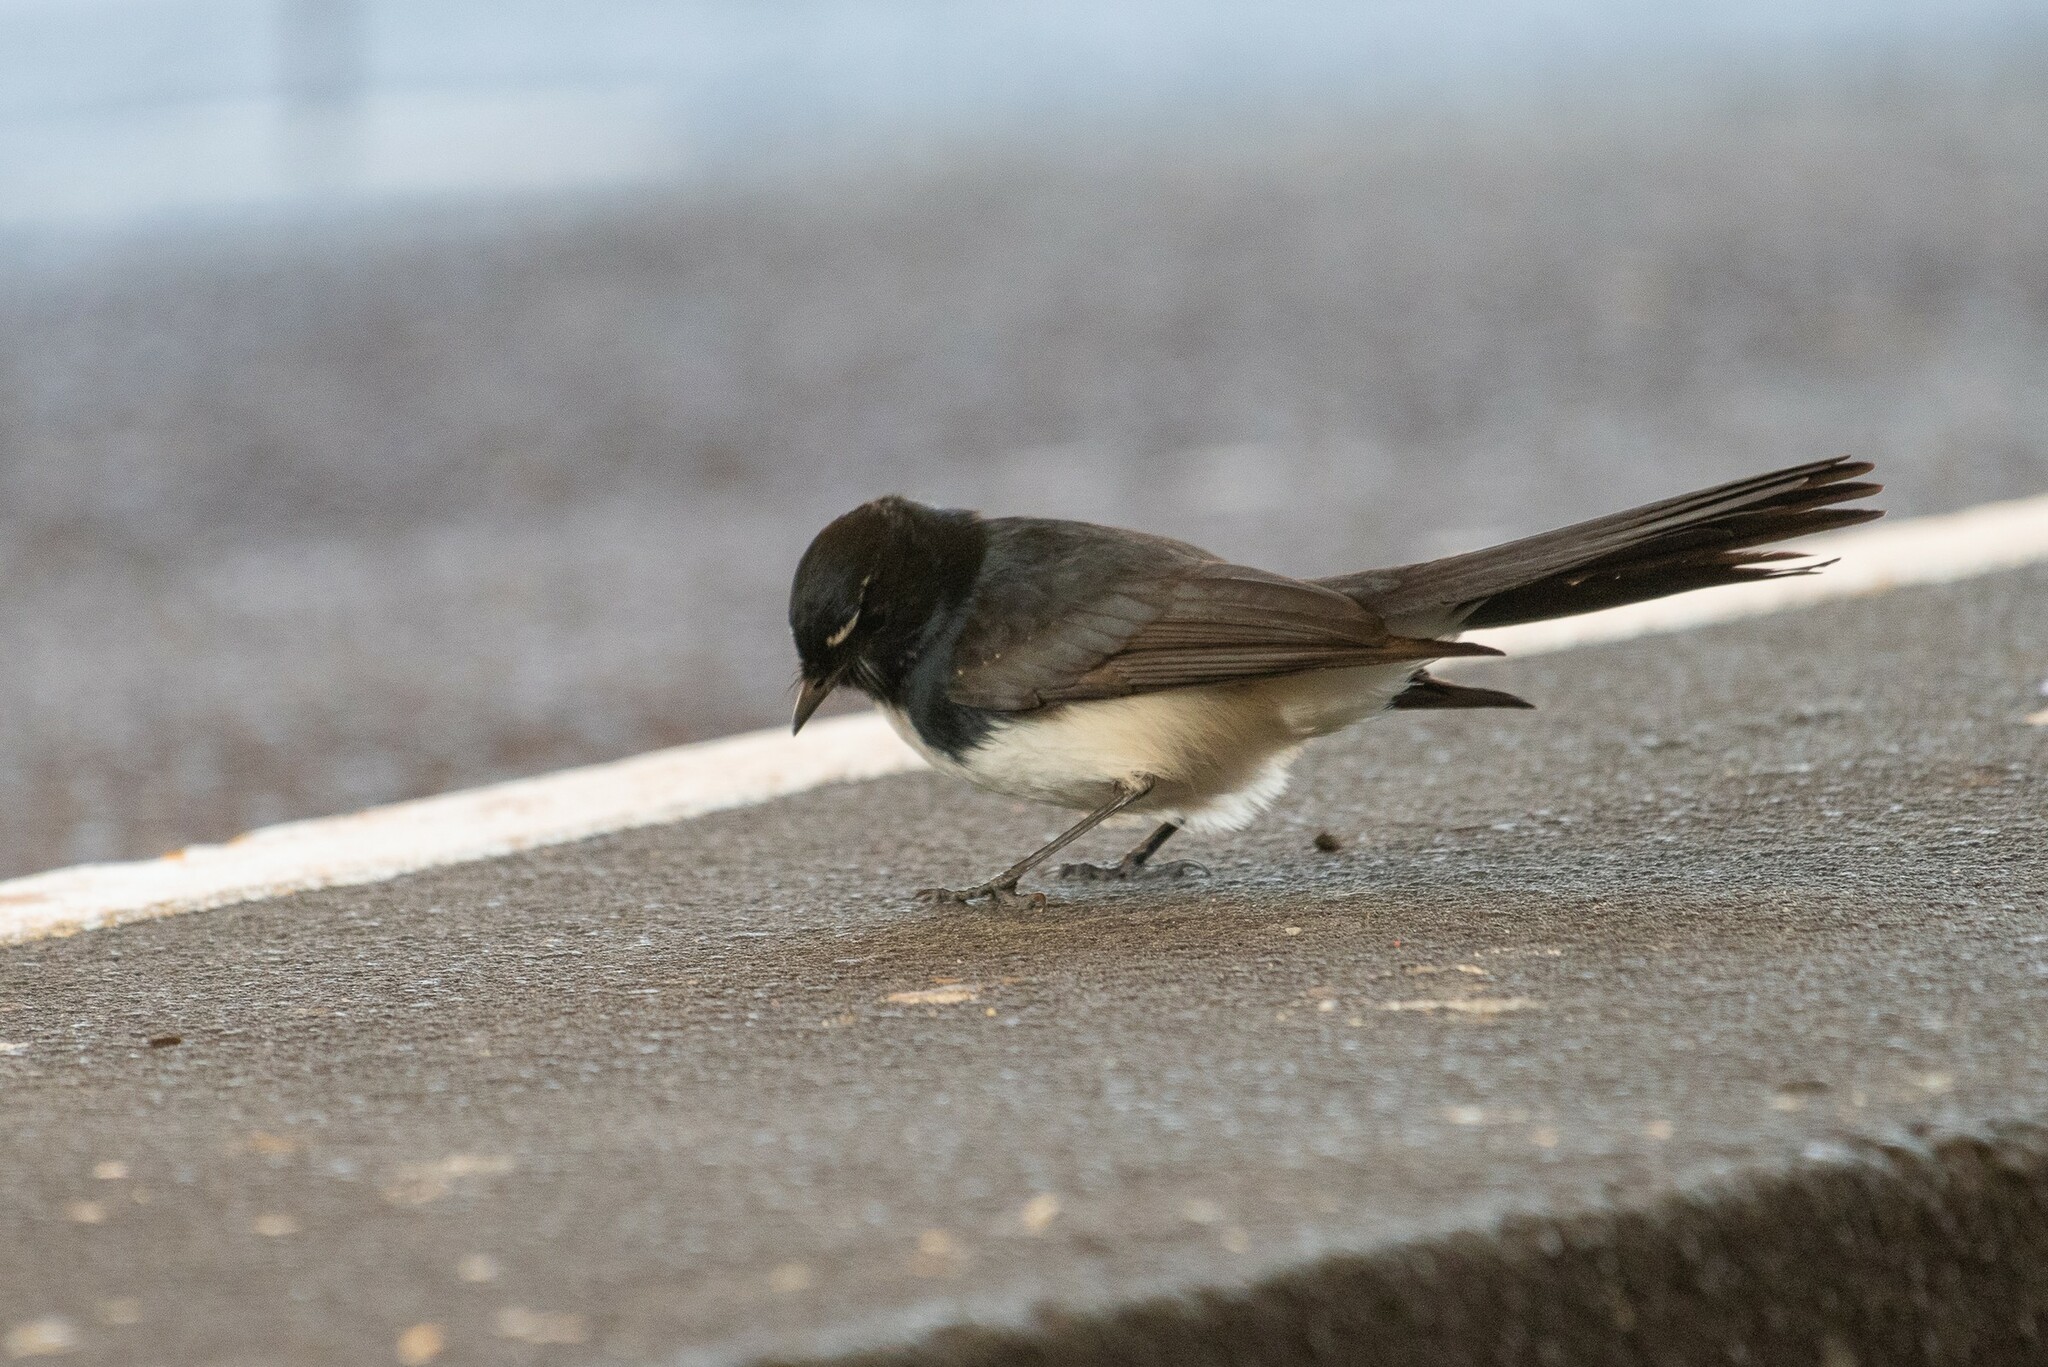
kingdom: Animalia
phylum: Chordata
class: Aves
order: Passeriformes
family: Rhipiduridae
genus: Rhipidura
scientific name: Rhipidura leucophrys
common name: Willie wagtail
